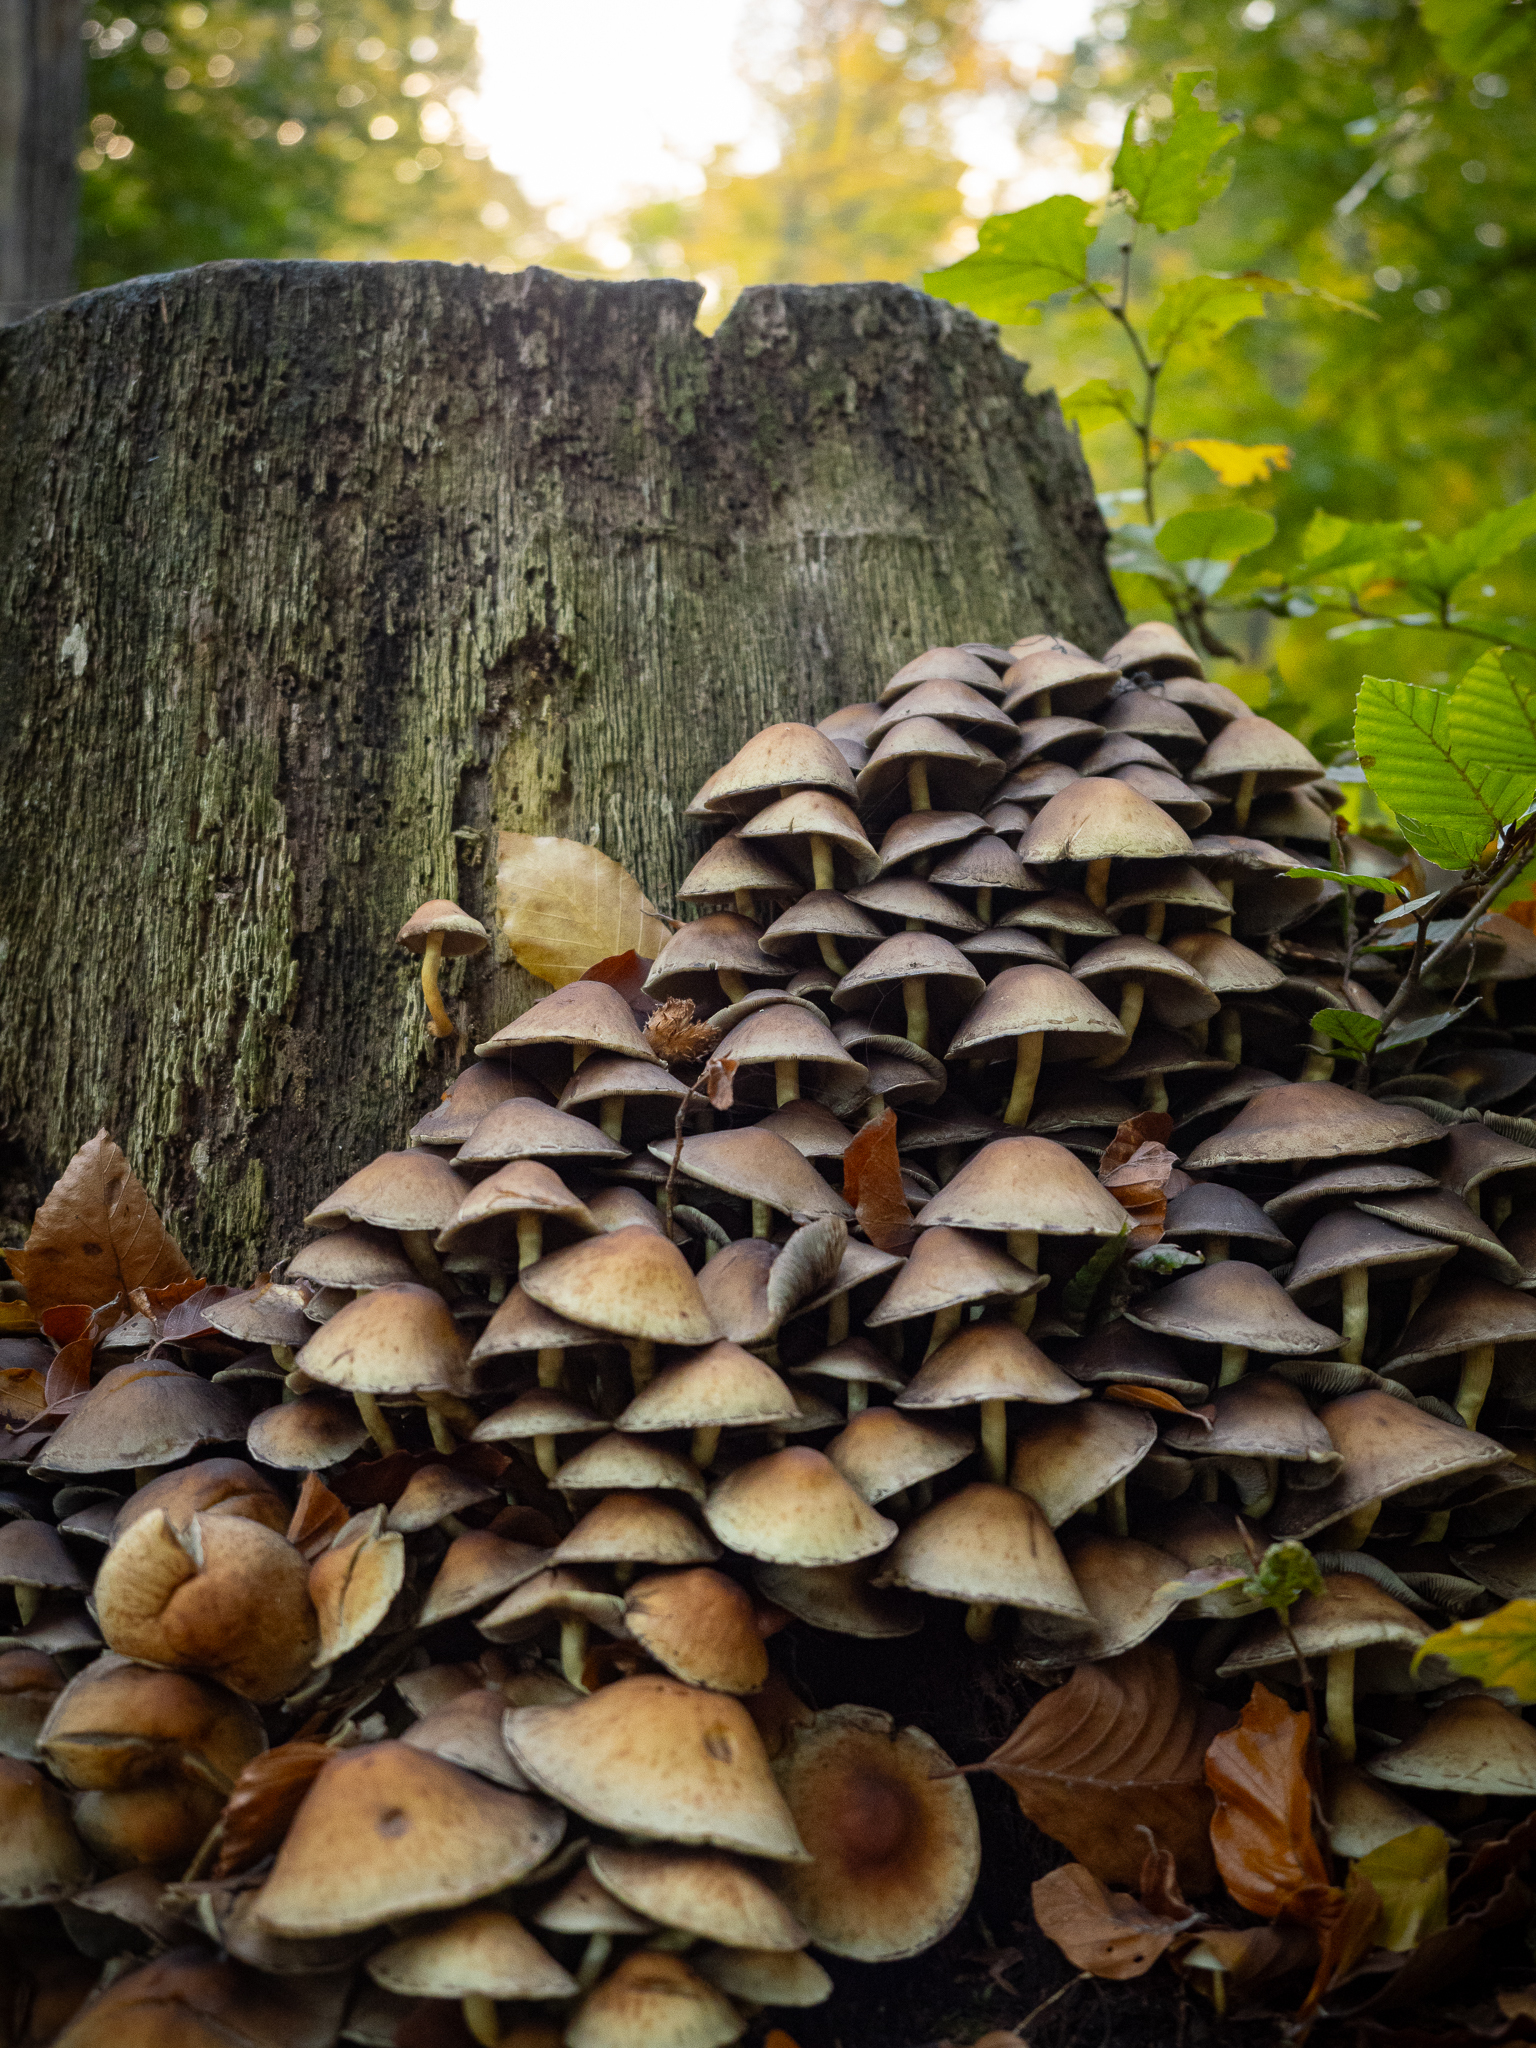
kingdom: Fungi
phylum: Basidiomycota
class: Agaricomycetes
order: Agaricales
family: Strophariaceae
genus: Hypholoma
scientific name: Hypholoma fasciculare
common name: Sulphur tuft
